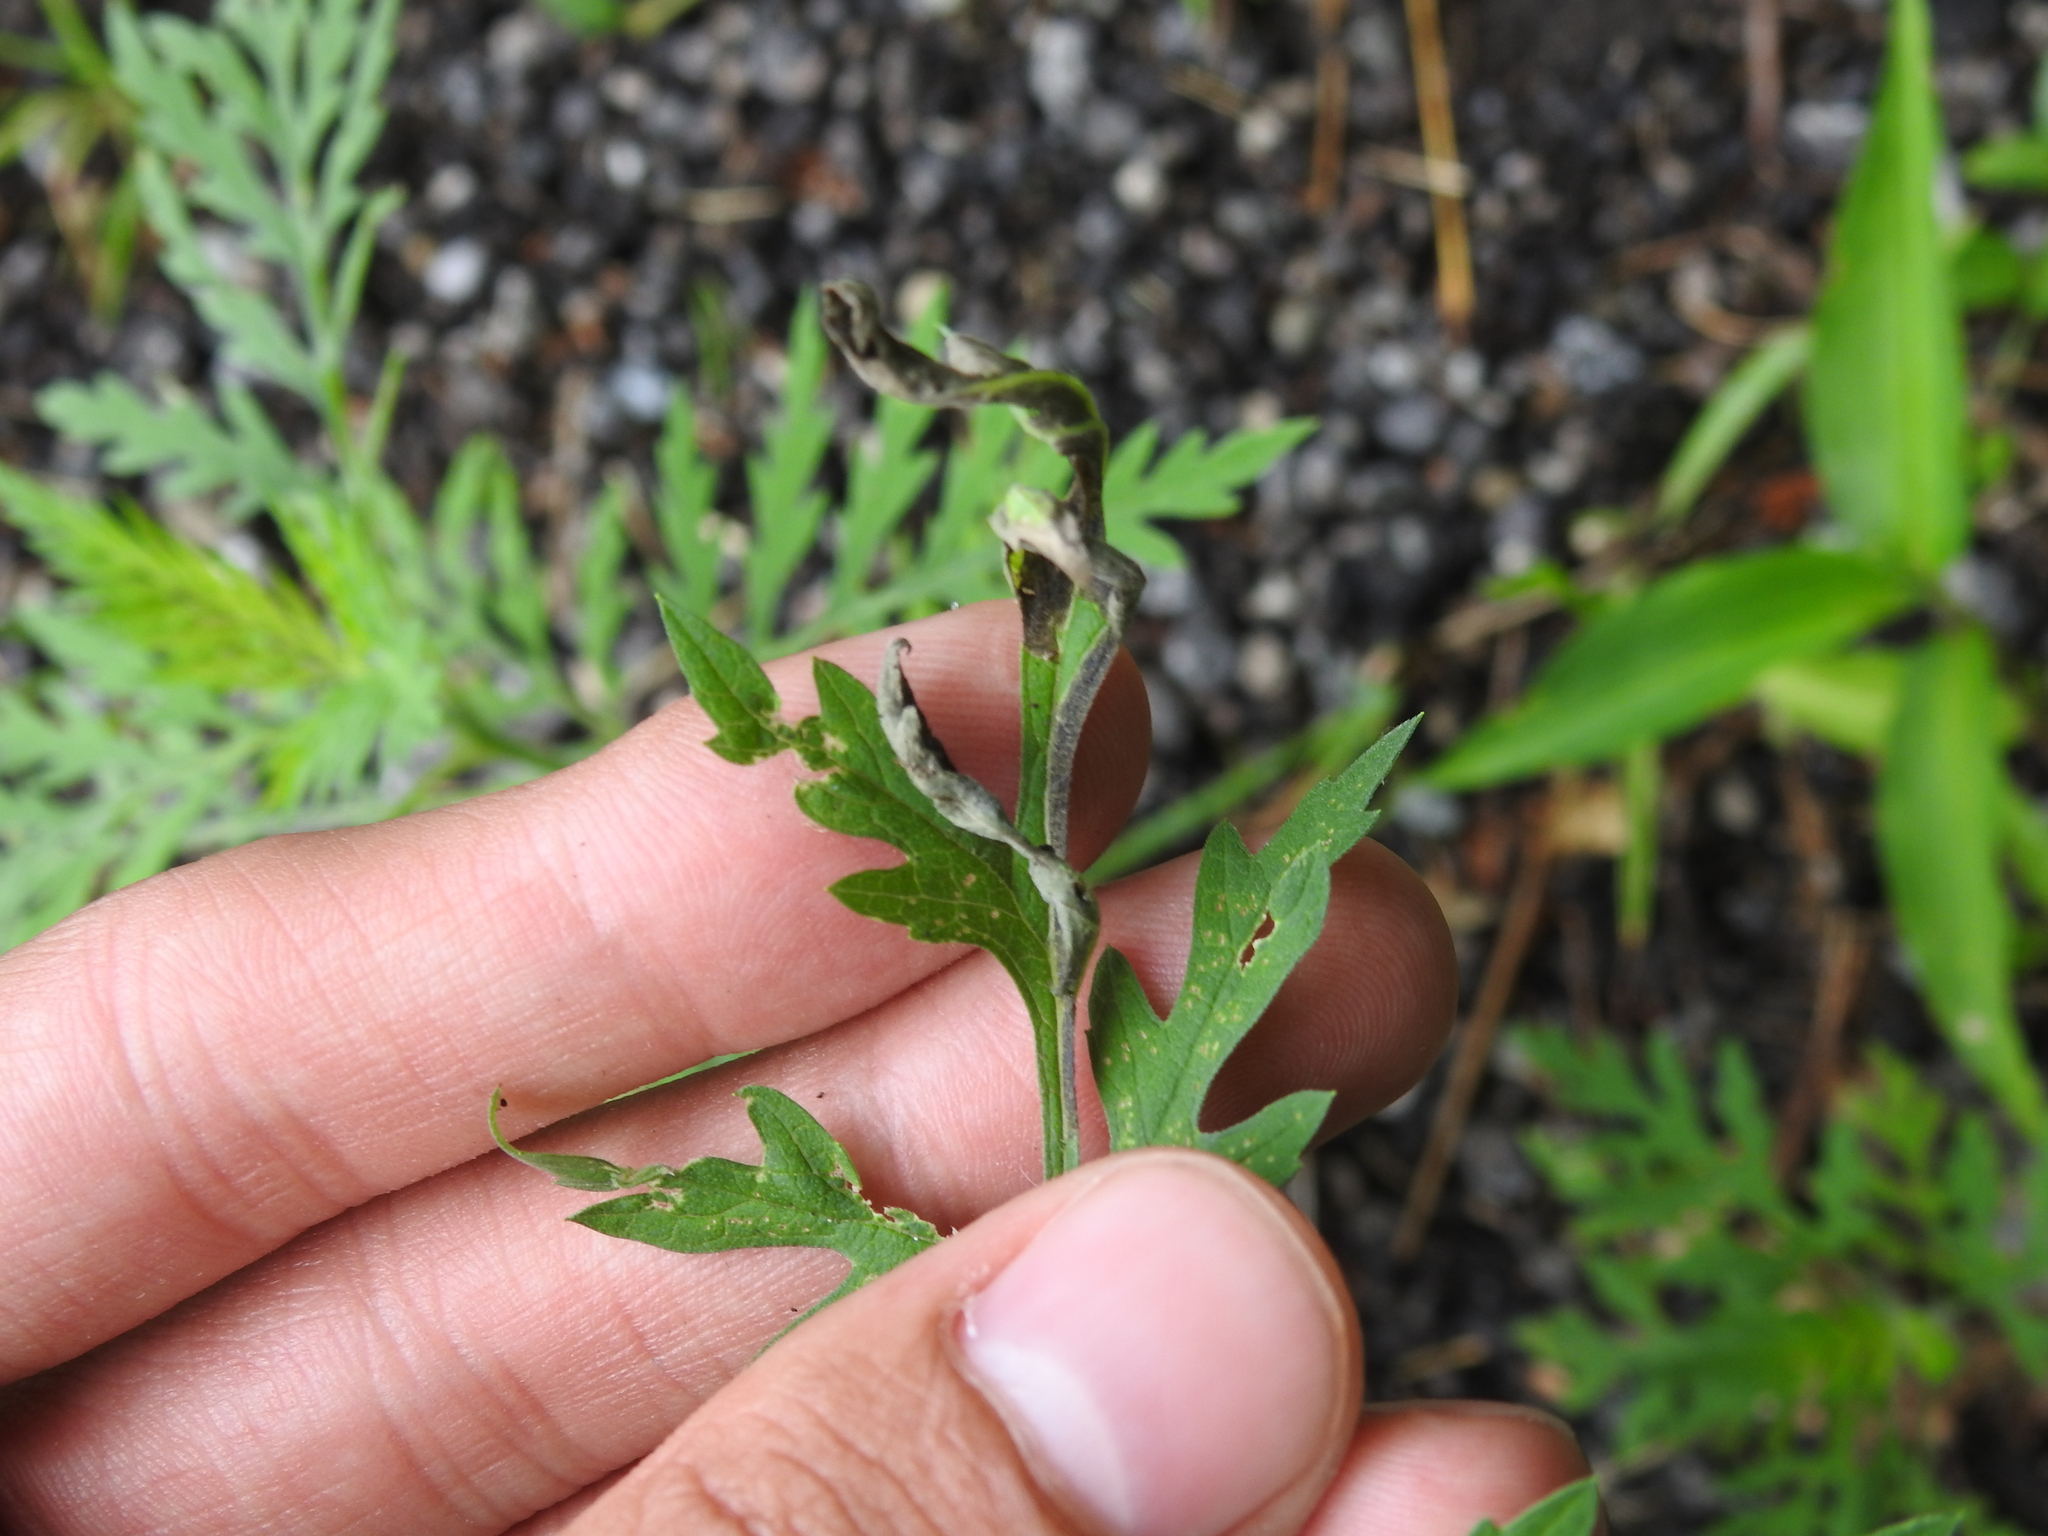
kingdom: Animalia
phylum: Arthropoda
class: Insecta
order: Diptera
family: Agromyzidae
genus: Agromyza
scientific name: Agromyza ambrosivora
